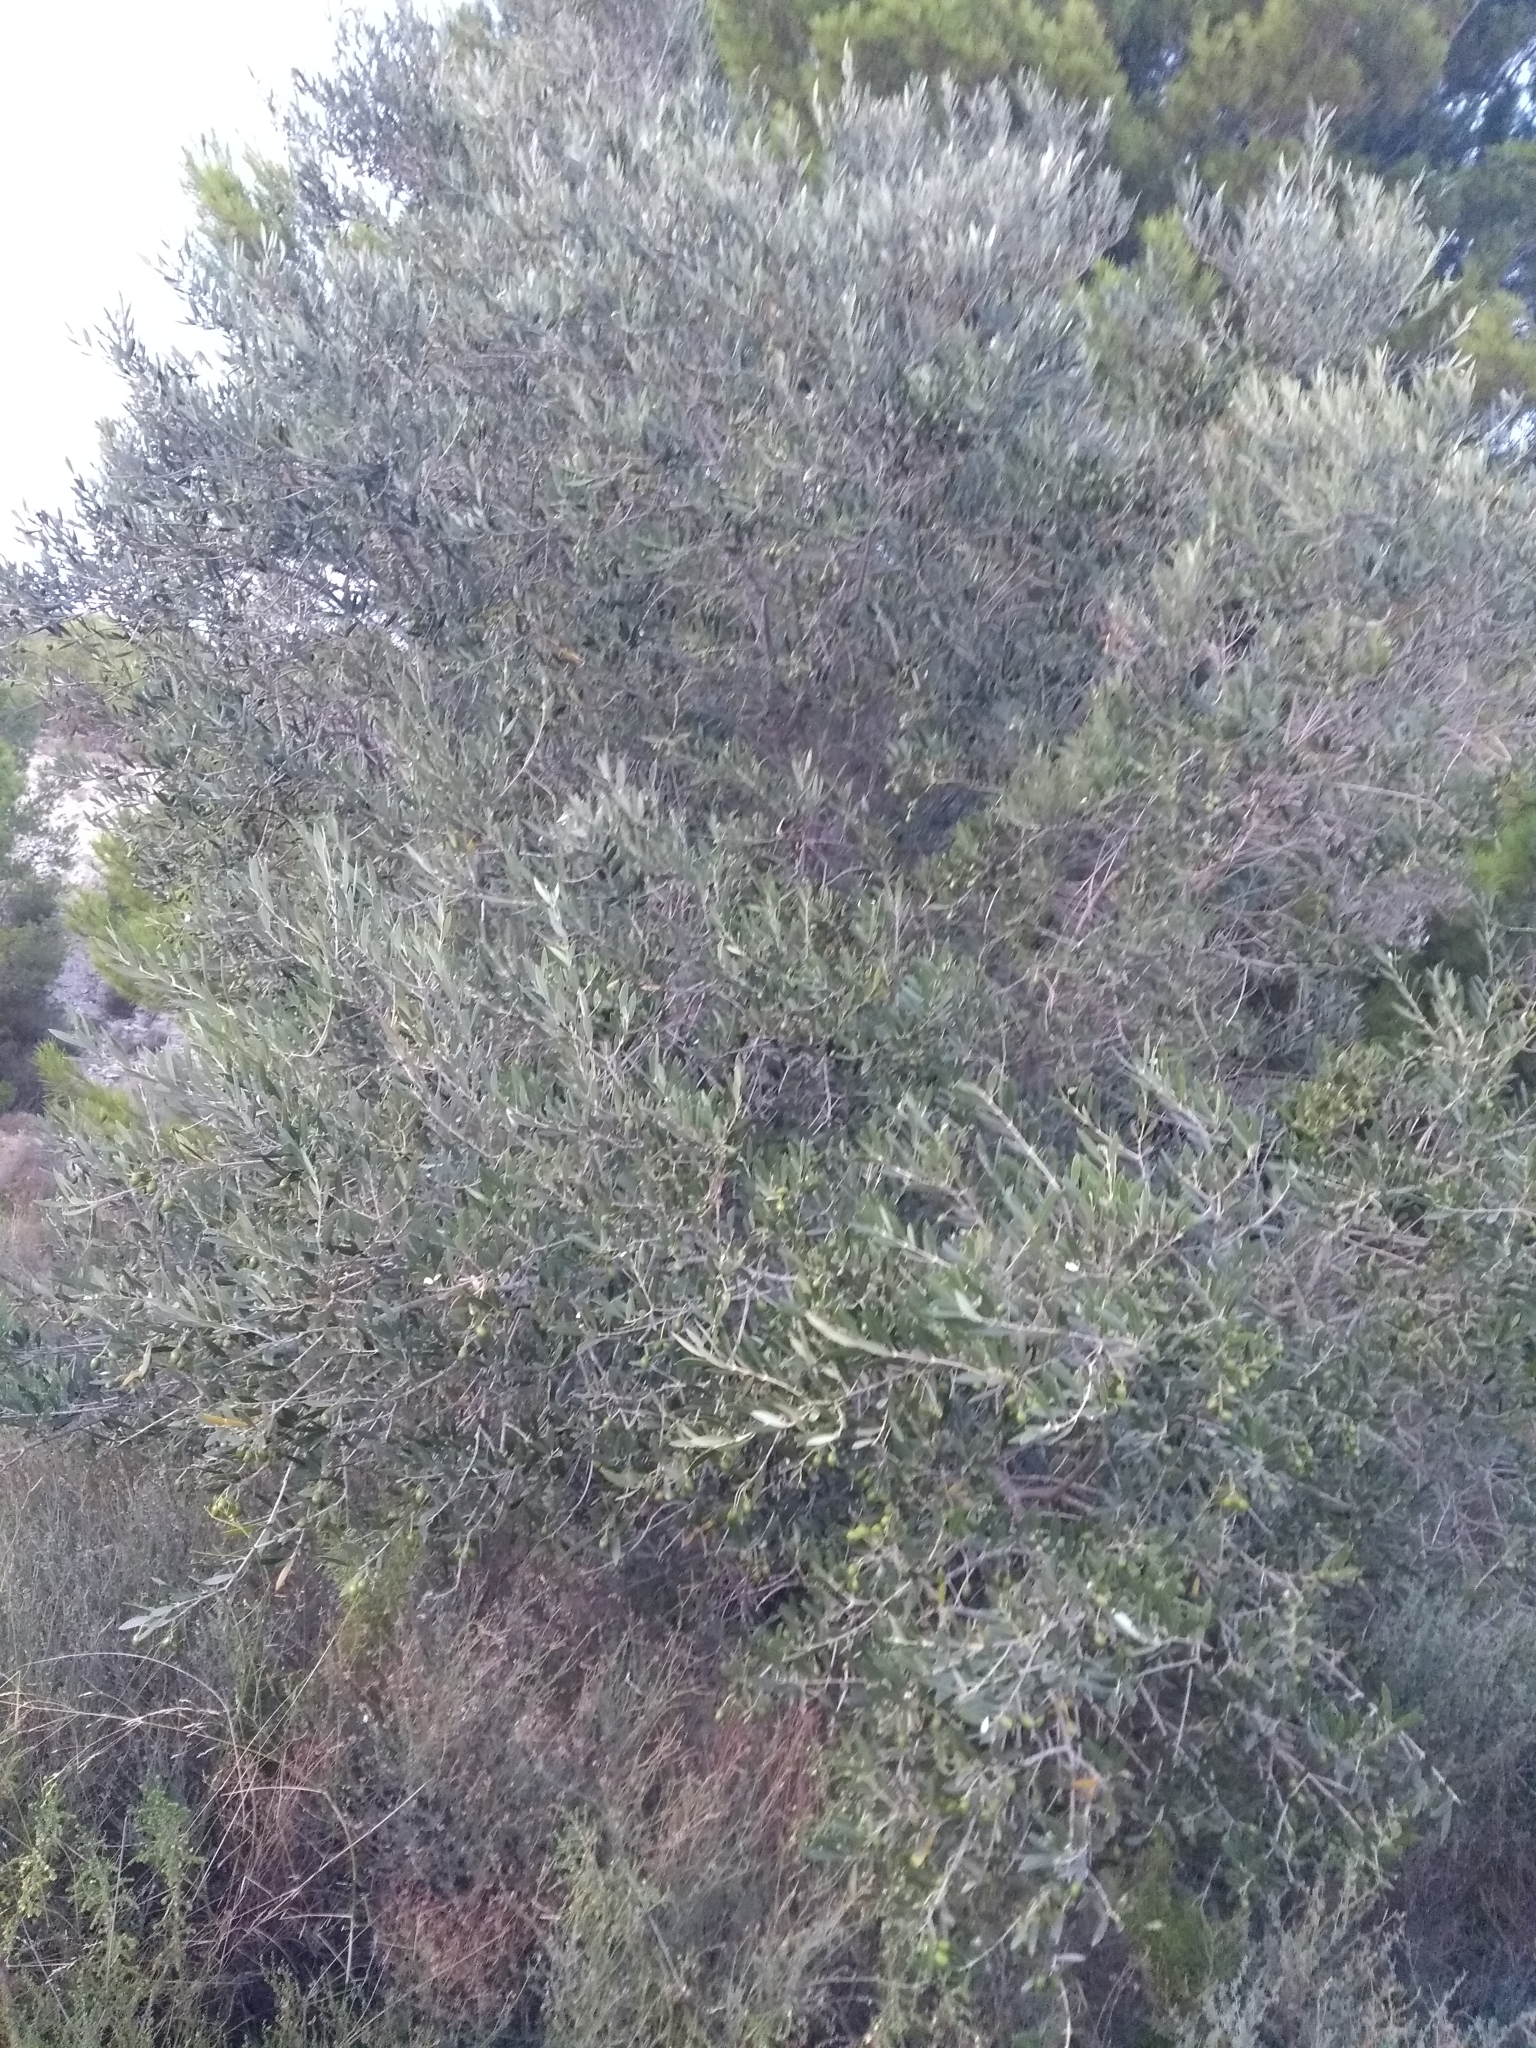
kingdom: Plantae
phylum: Tracheophyta
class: Magnoliopsida
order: Lamiales
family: Oleaceae
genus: Olea
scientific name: Olea europaea
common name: Olive
